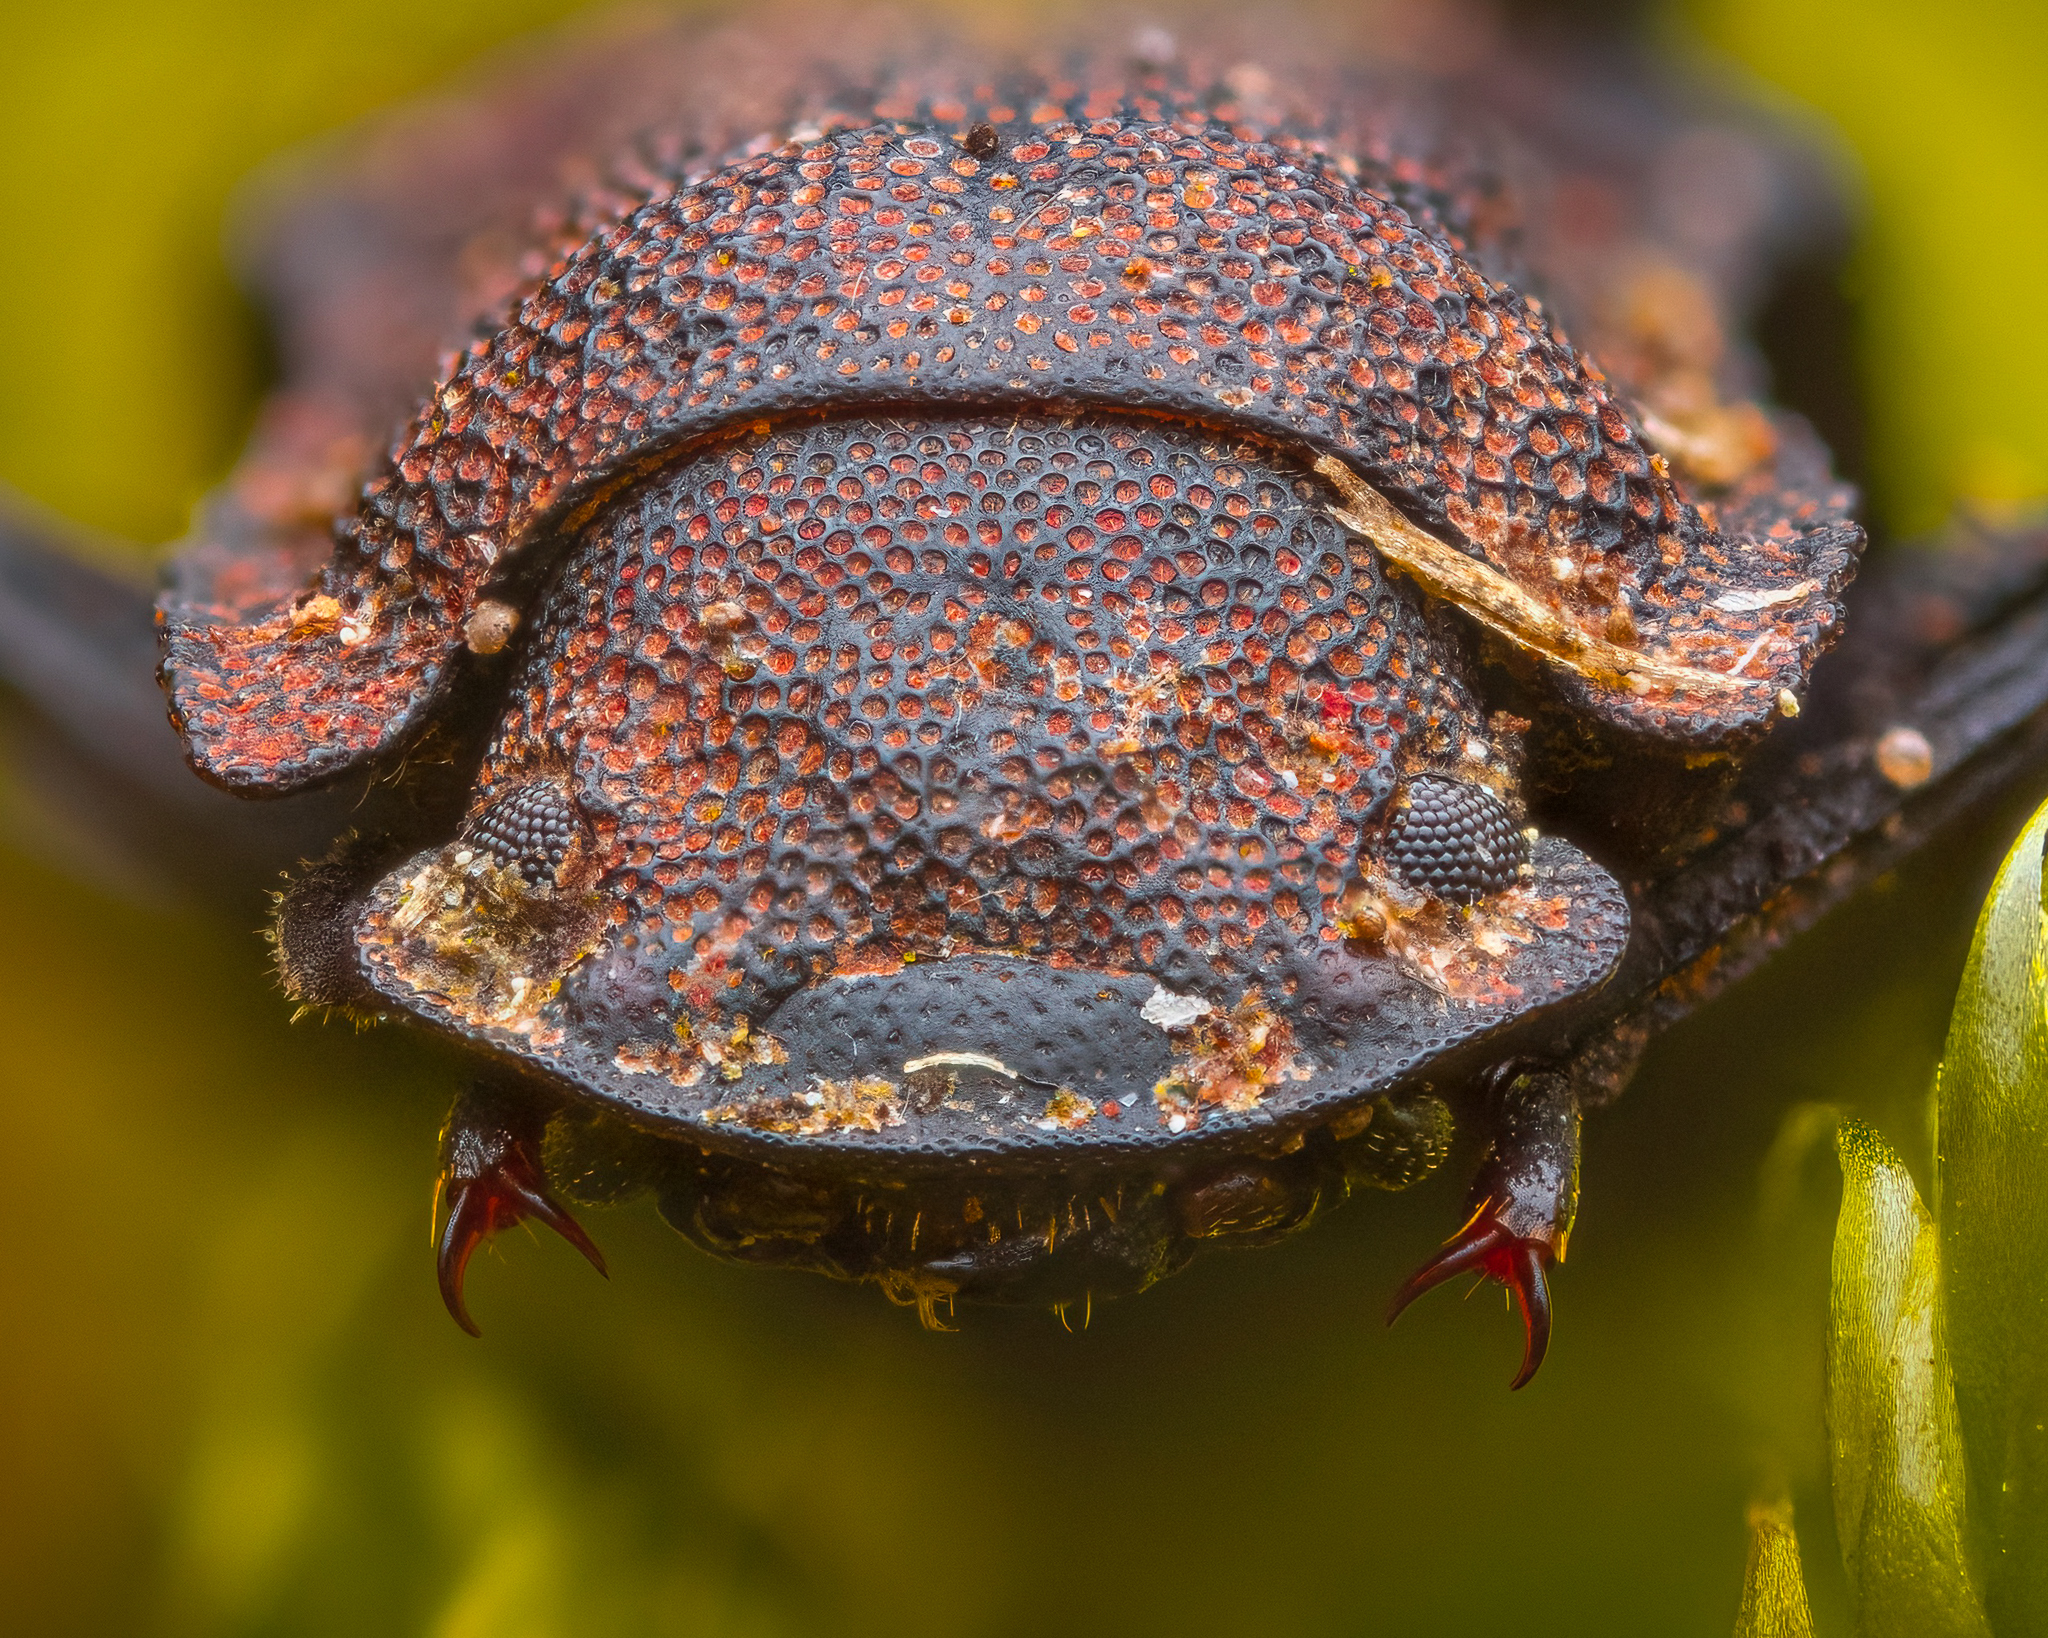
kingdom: Animalia
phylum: Arthropoda
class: Insecta
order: Coleoptera
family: Tenebrionidae
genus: Bolitophagus
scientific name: Bolitophagus reticulatus
